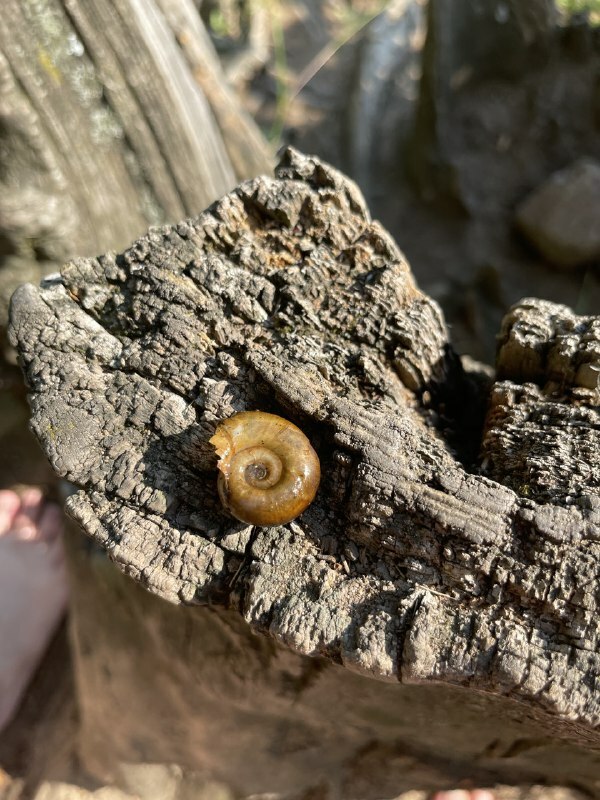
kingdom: Animalia
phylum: Mollusca
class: Gastropoda
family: Planorbidae
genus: Planorbarius
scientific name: Planorbarius corneus
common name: Great ramshorn
